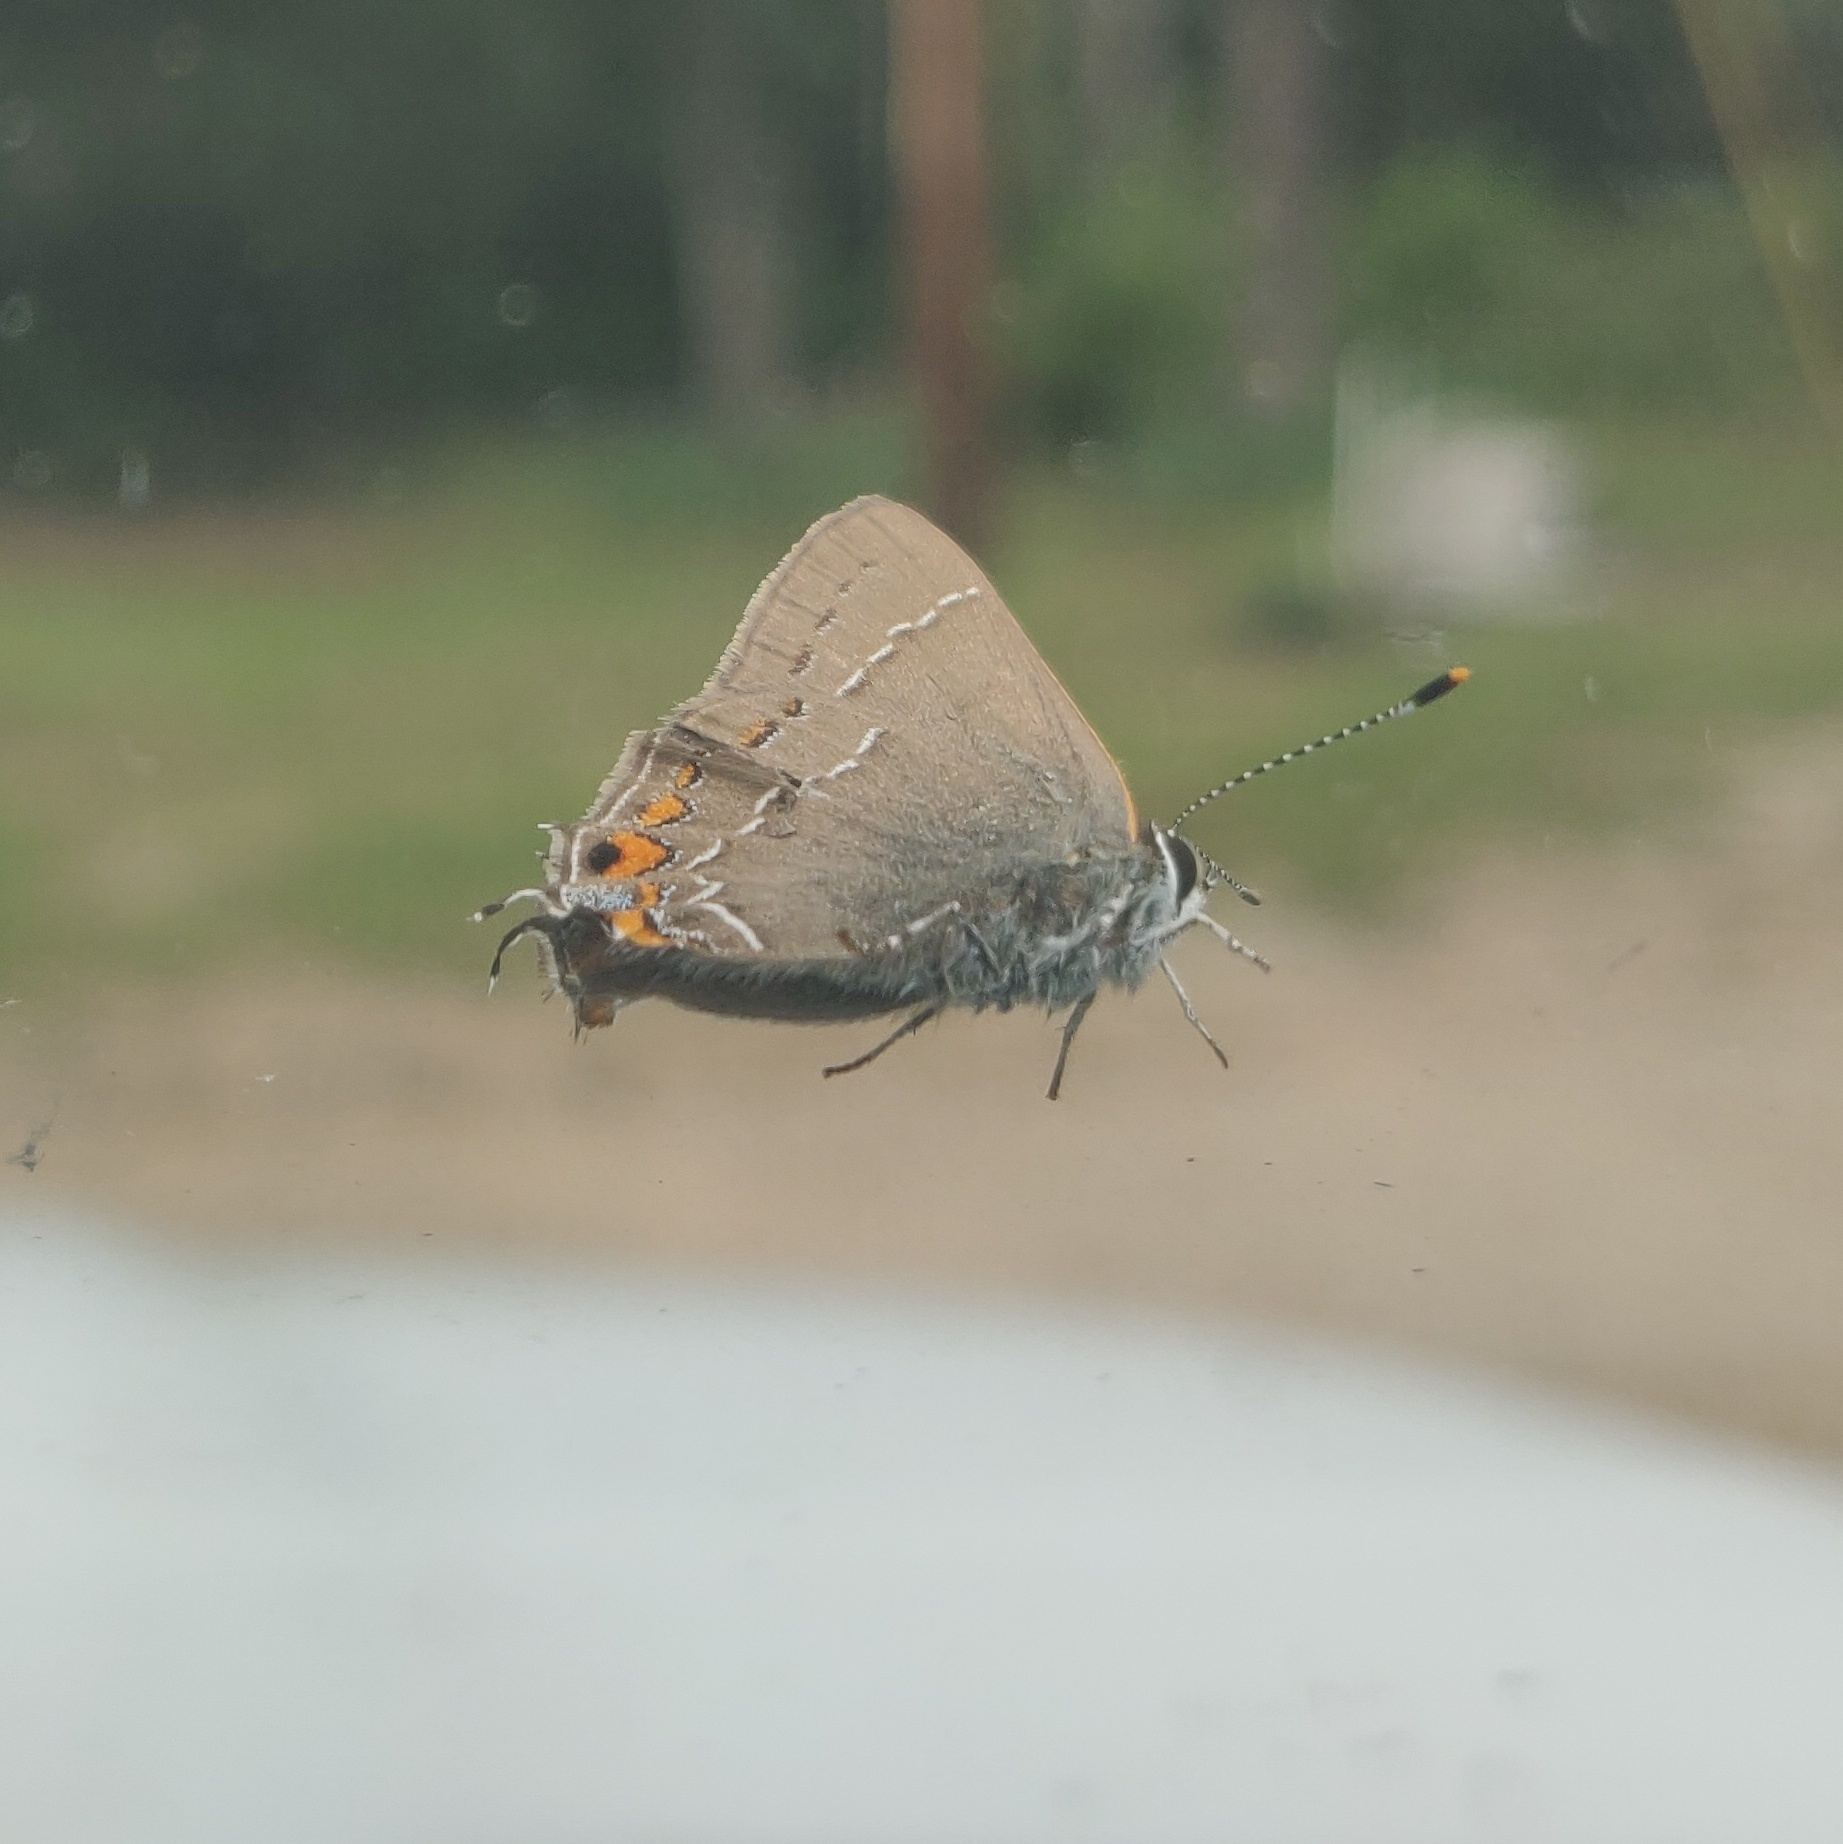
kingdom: Animalia
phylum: Arthropoda
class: Insecta
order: Lepidoptera
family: Lycaenidae
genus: Fixsenia
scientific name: Fixsenia favonius
